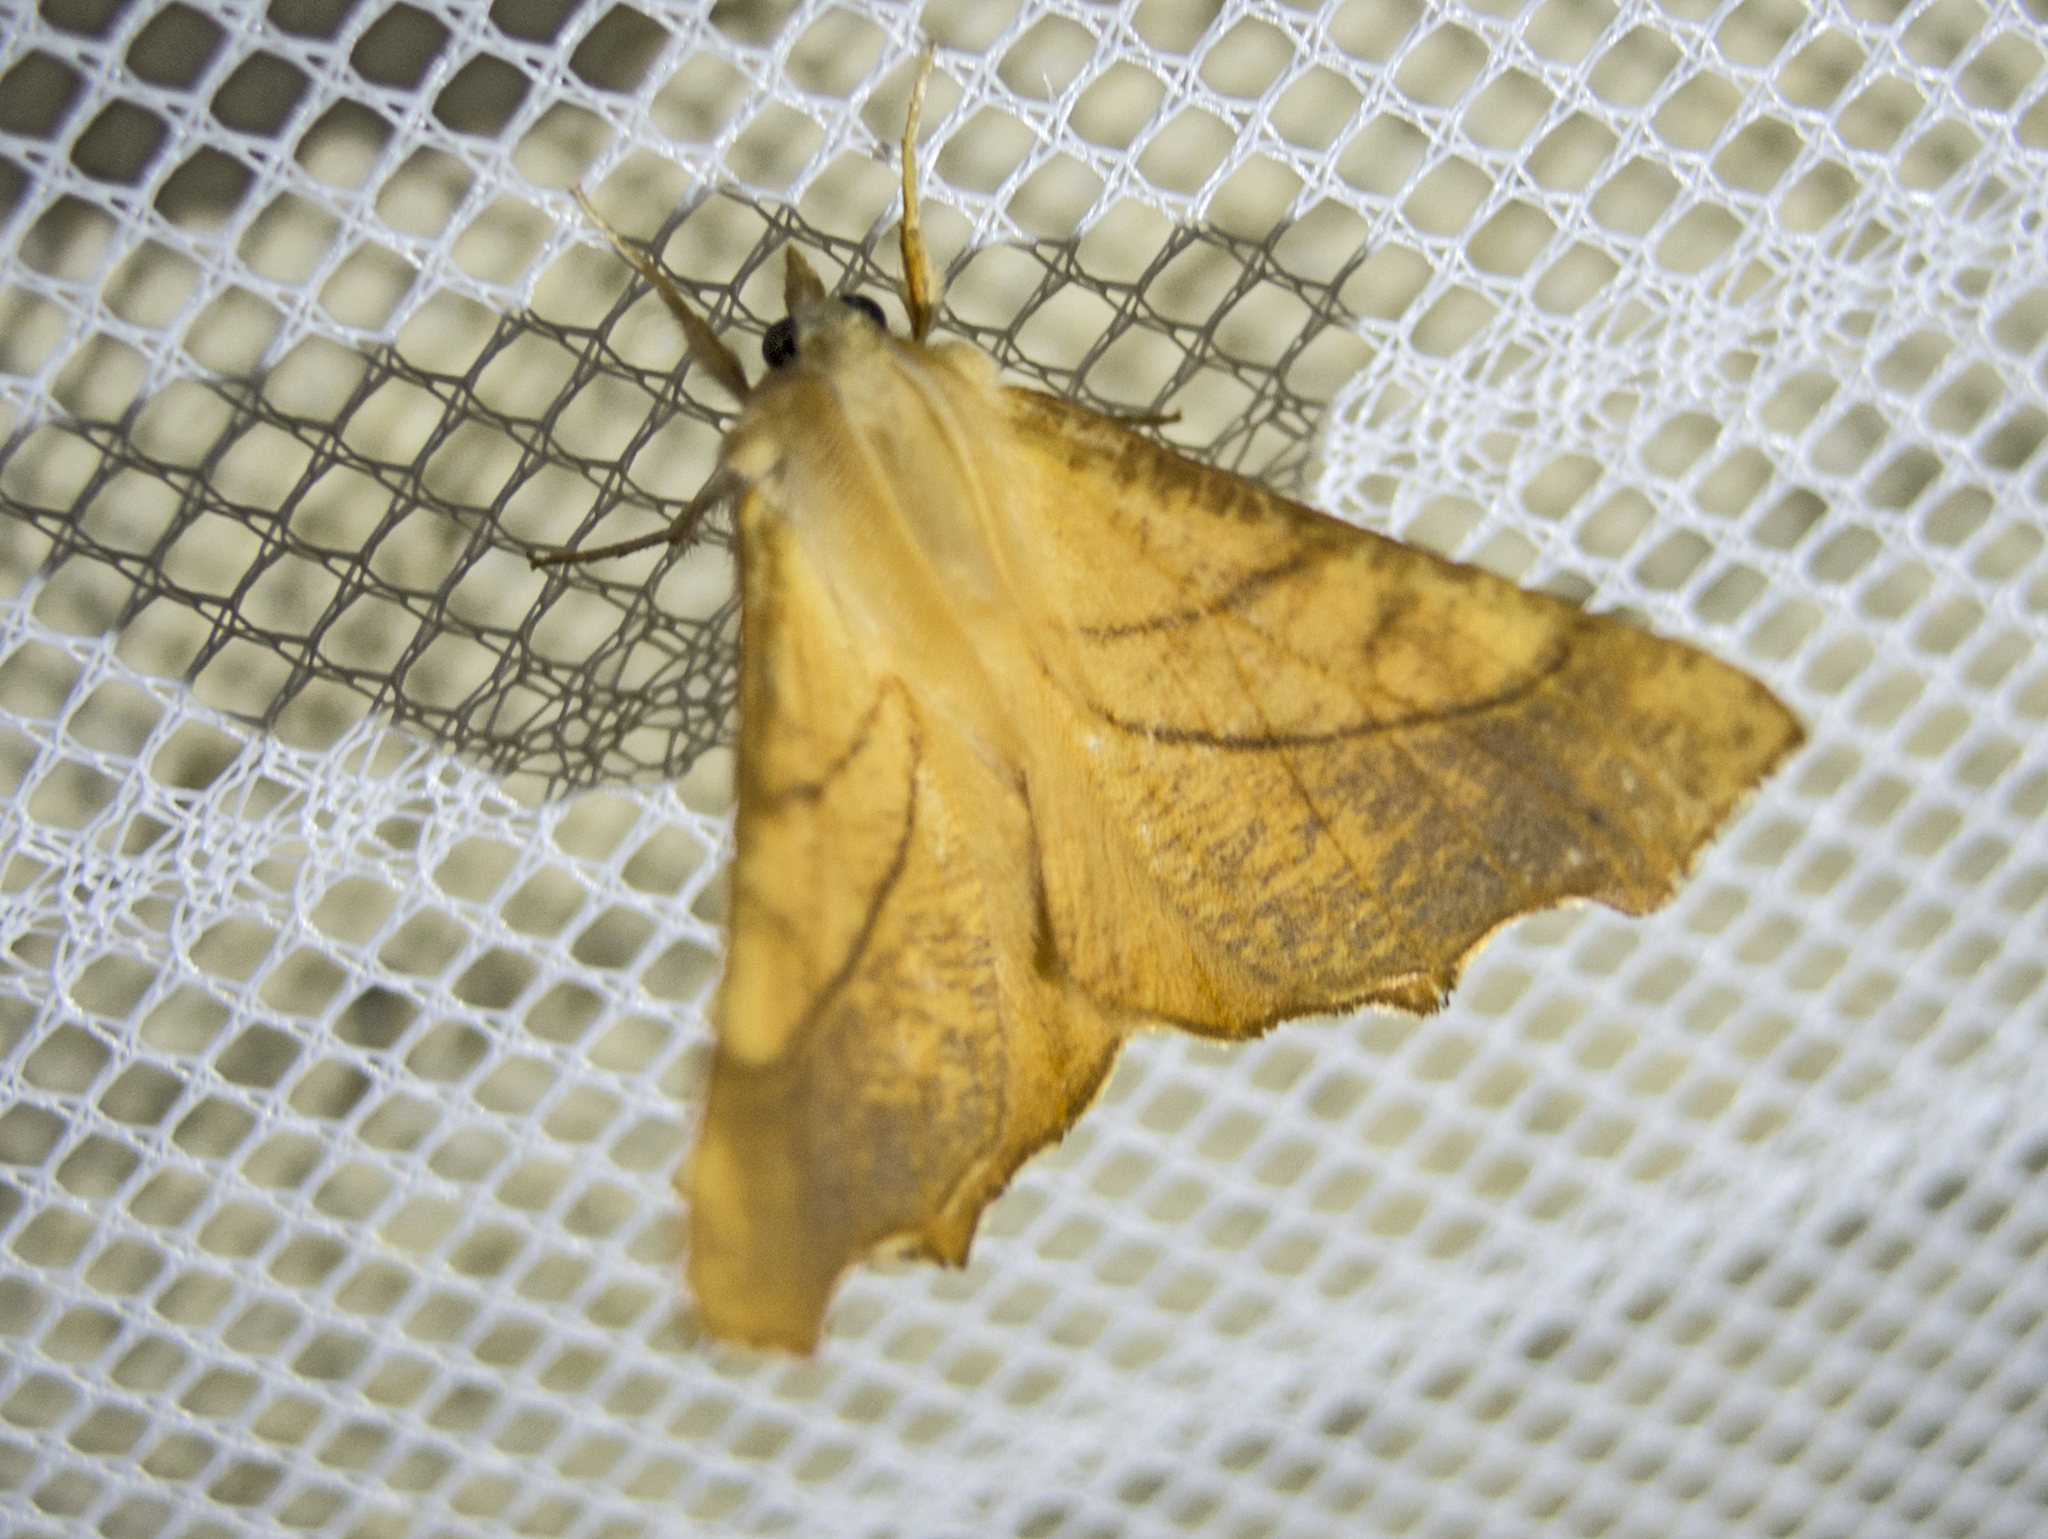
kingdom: Animalia
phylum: Arthropoda
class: Insecta
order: Lepidoptera
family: Geometridae
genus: Ennomos
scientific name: Ennomos fuscantaria
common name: Dusky thorn
